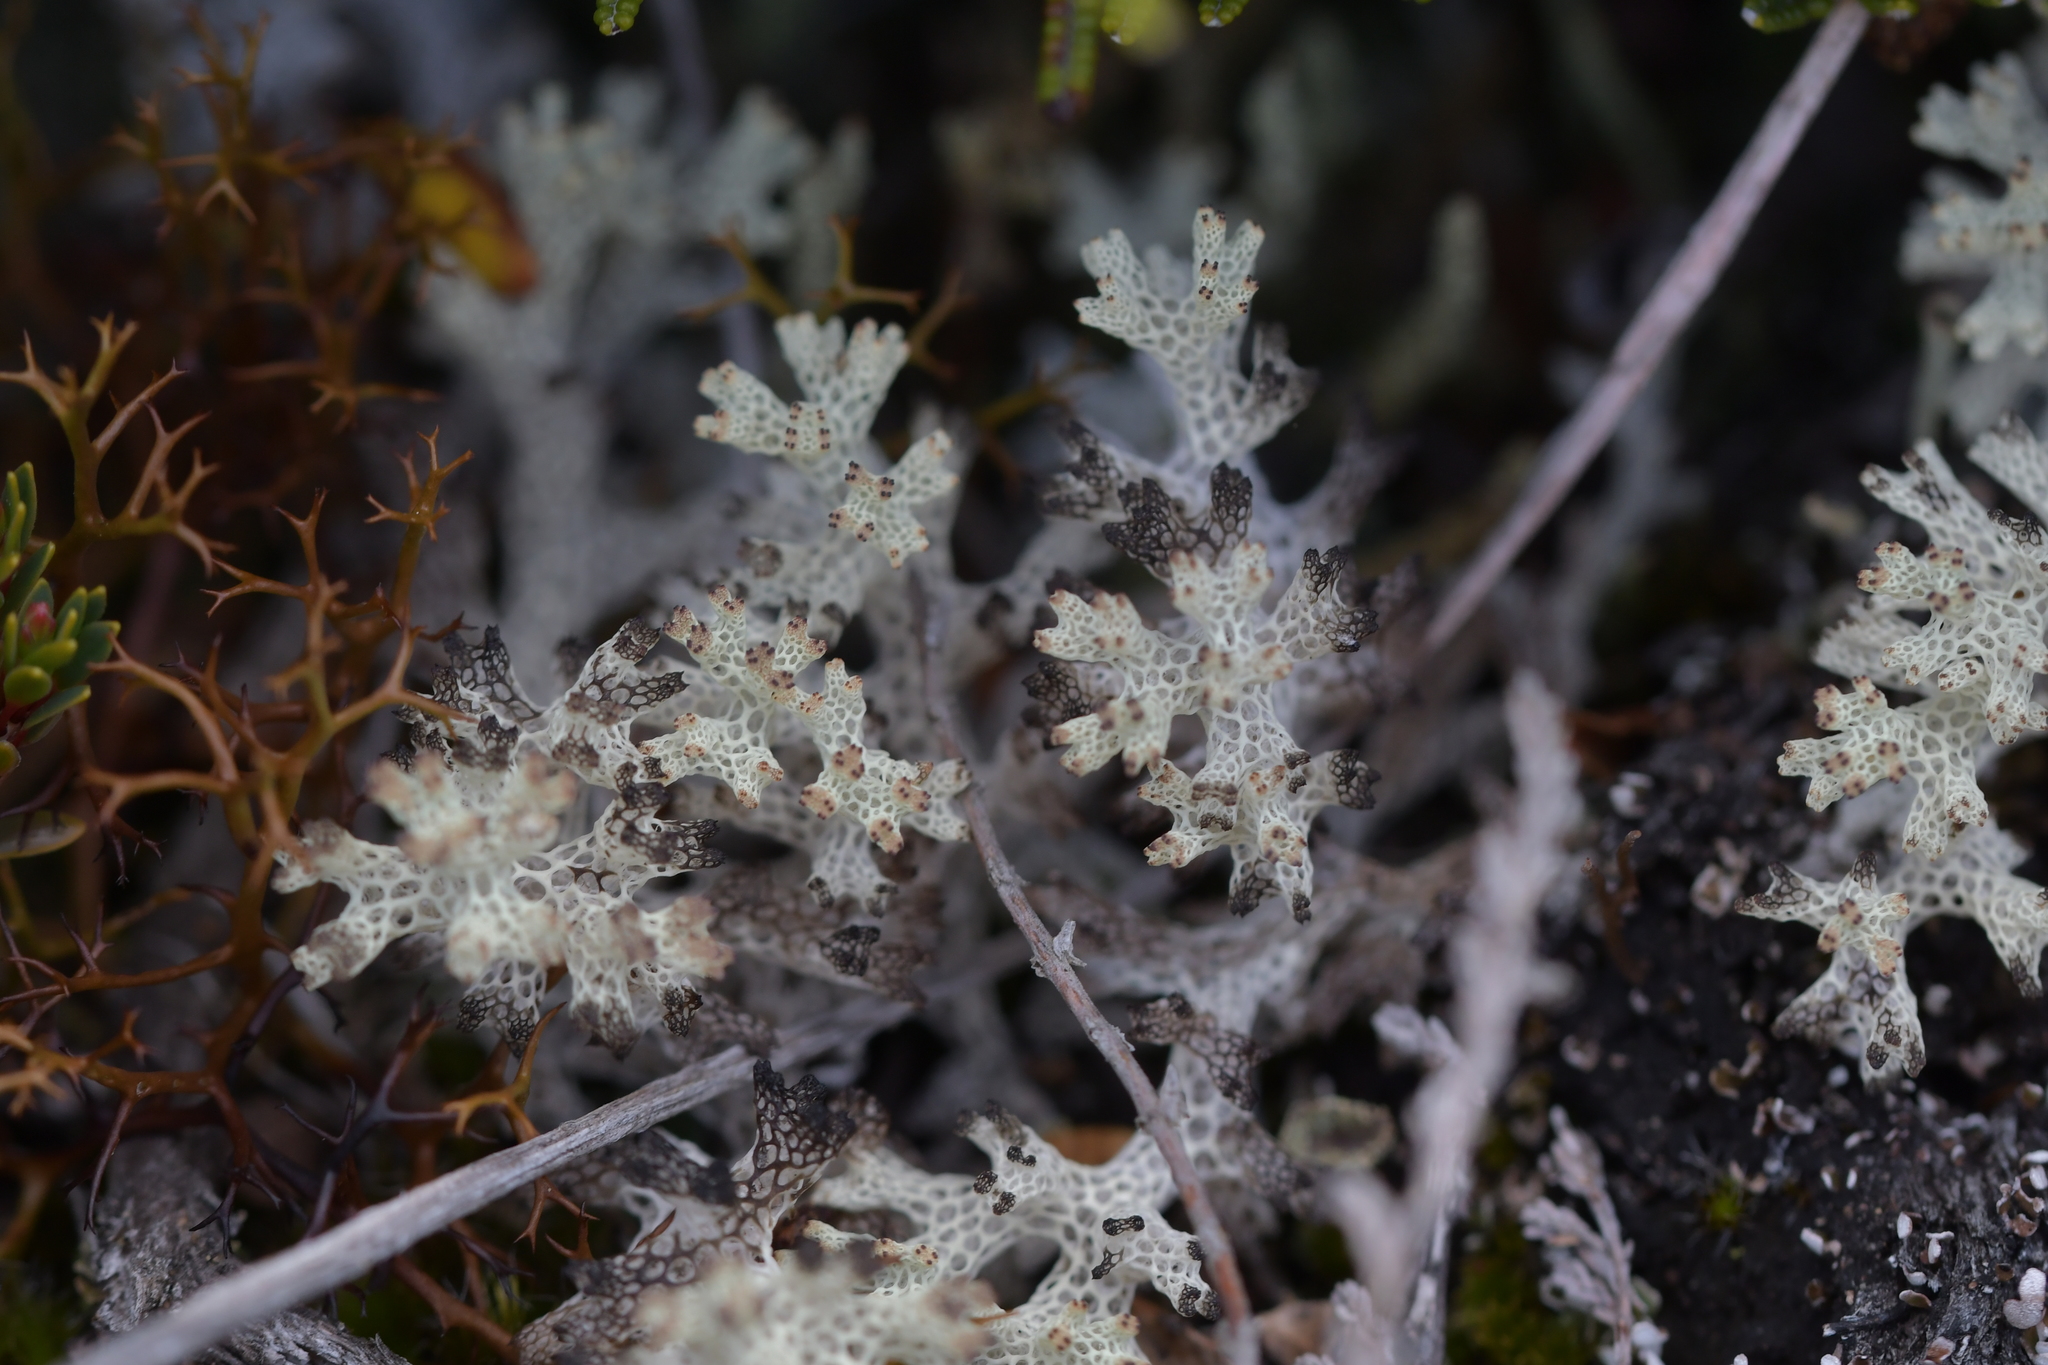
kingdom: Fungi
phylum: Ascomycota
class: Lecanoromycetes
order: Lecanorales
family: Cladoniaceae
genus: Pulchrocladia
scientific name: Pulchrocladia retipora
